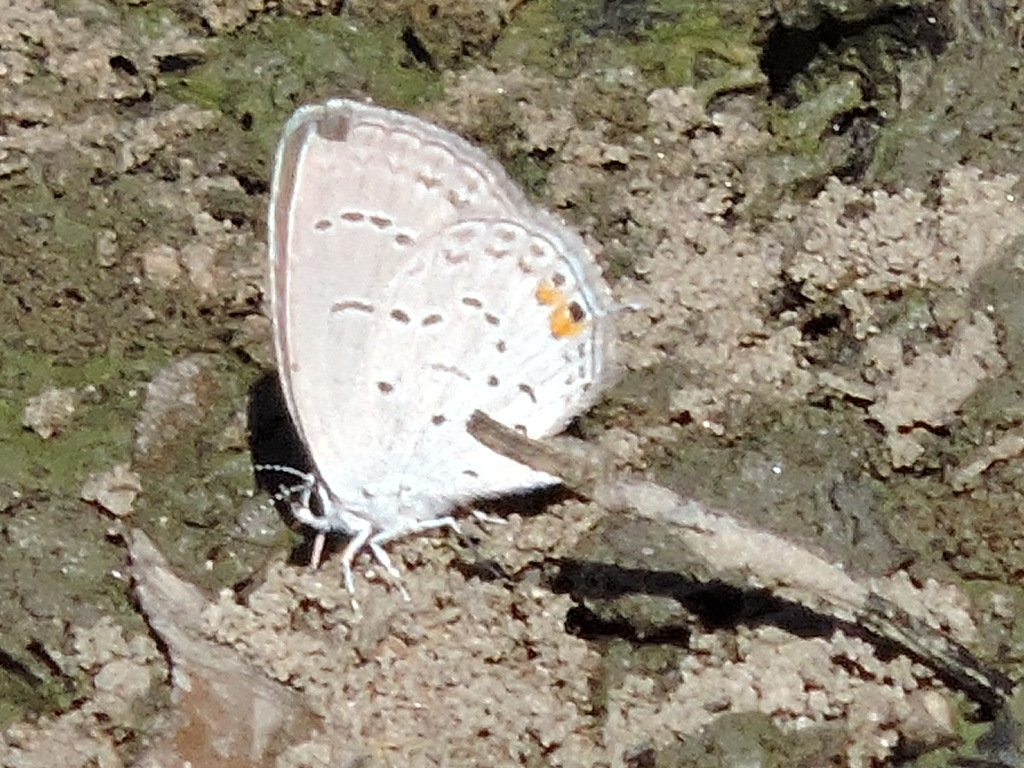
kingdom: Animalia
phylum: Arthropoda
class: Insecta
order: Lepidoptera
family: Lycaenidae
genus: Elkalyce
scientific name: Elkalyce comyntas
